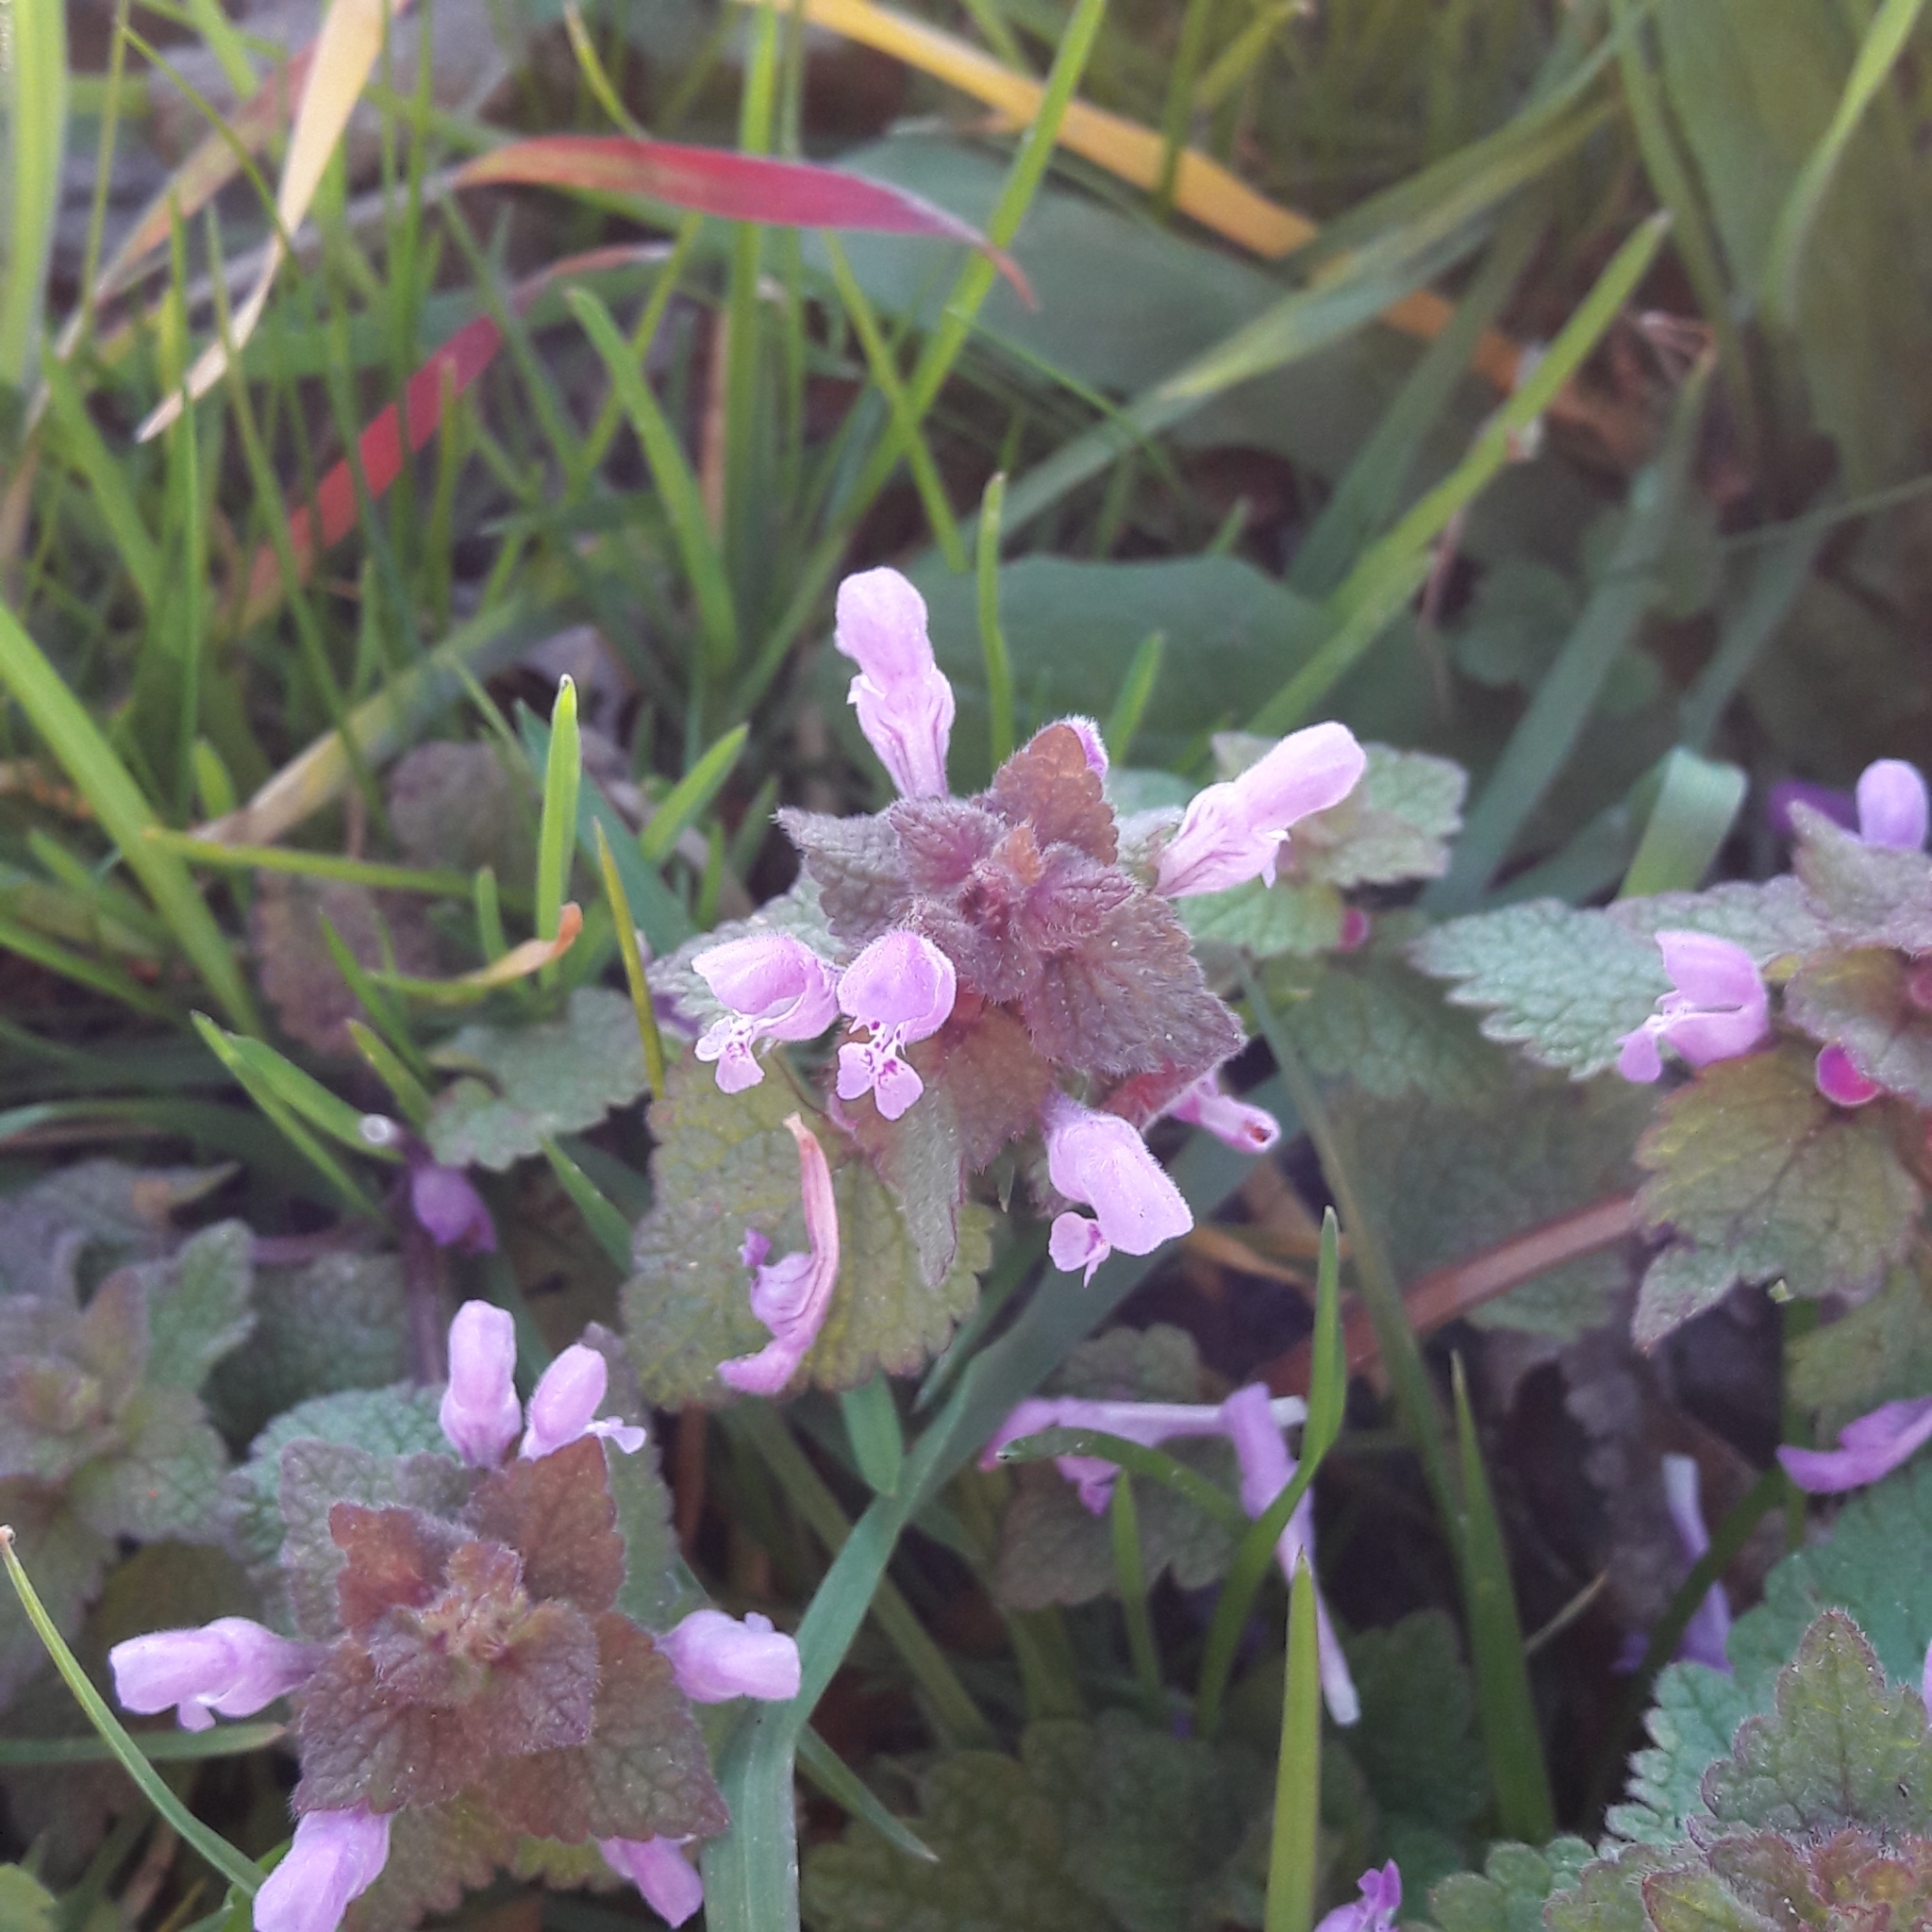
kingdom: Plantae
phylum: Tracheophyta
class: Magnoliopsida
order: Lamiales
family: Lamiaceae
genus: Lamium
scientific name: Lamium purpureum
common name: Red dead-nettle
